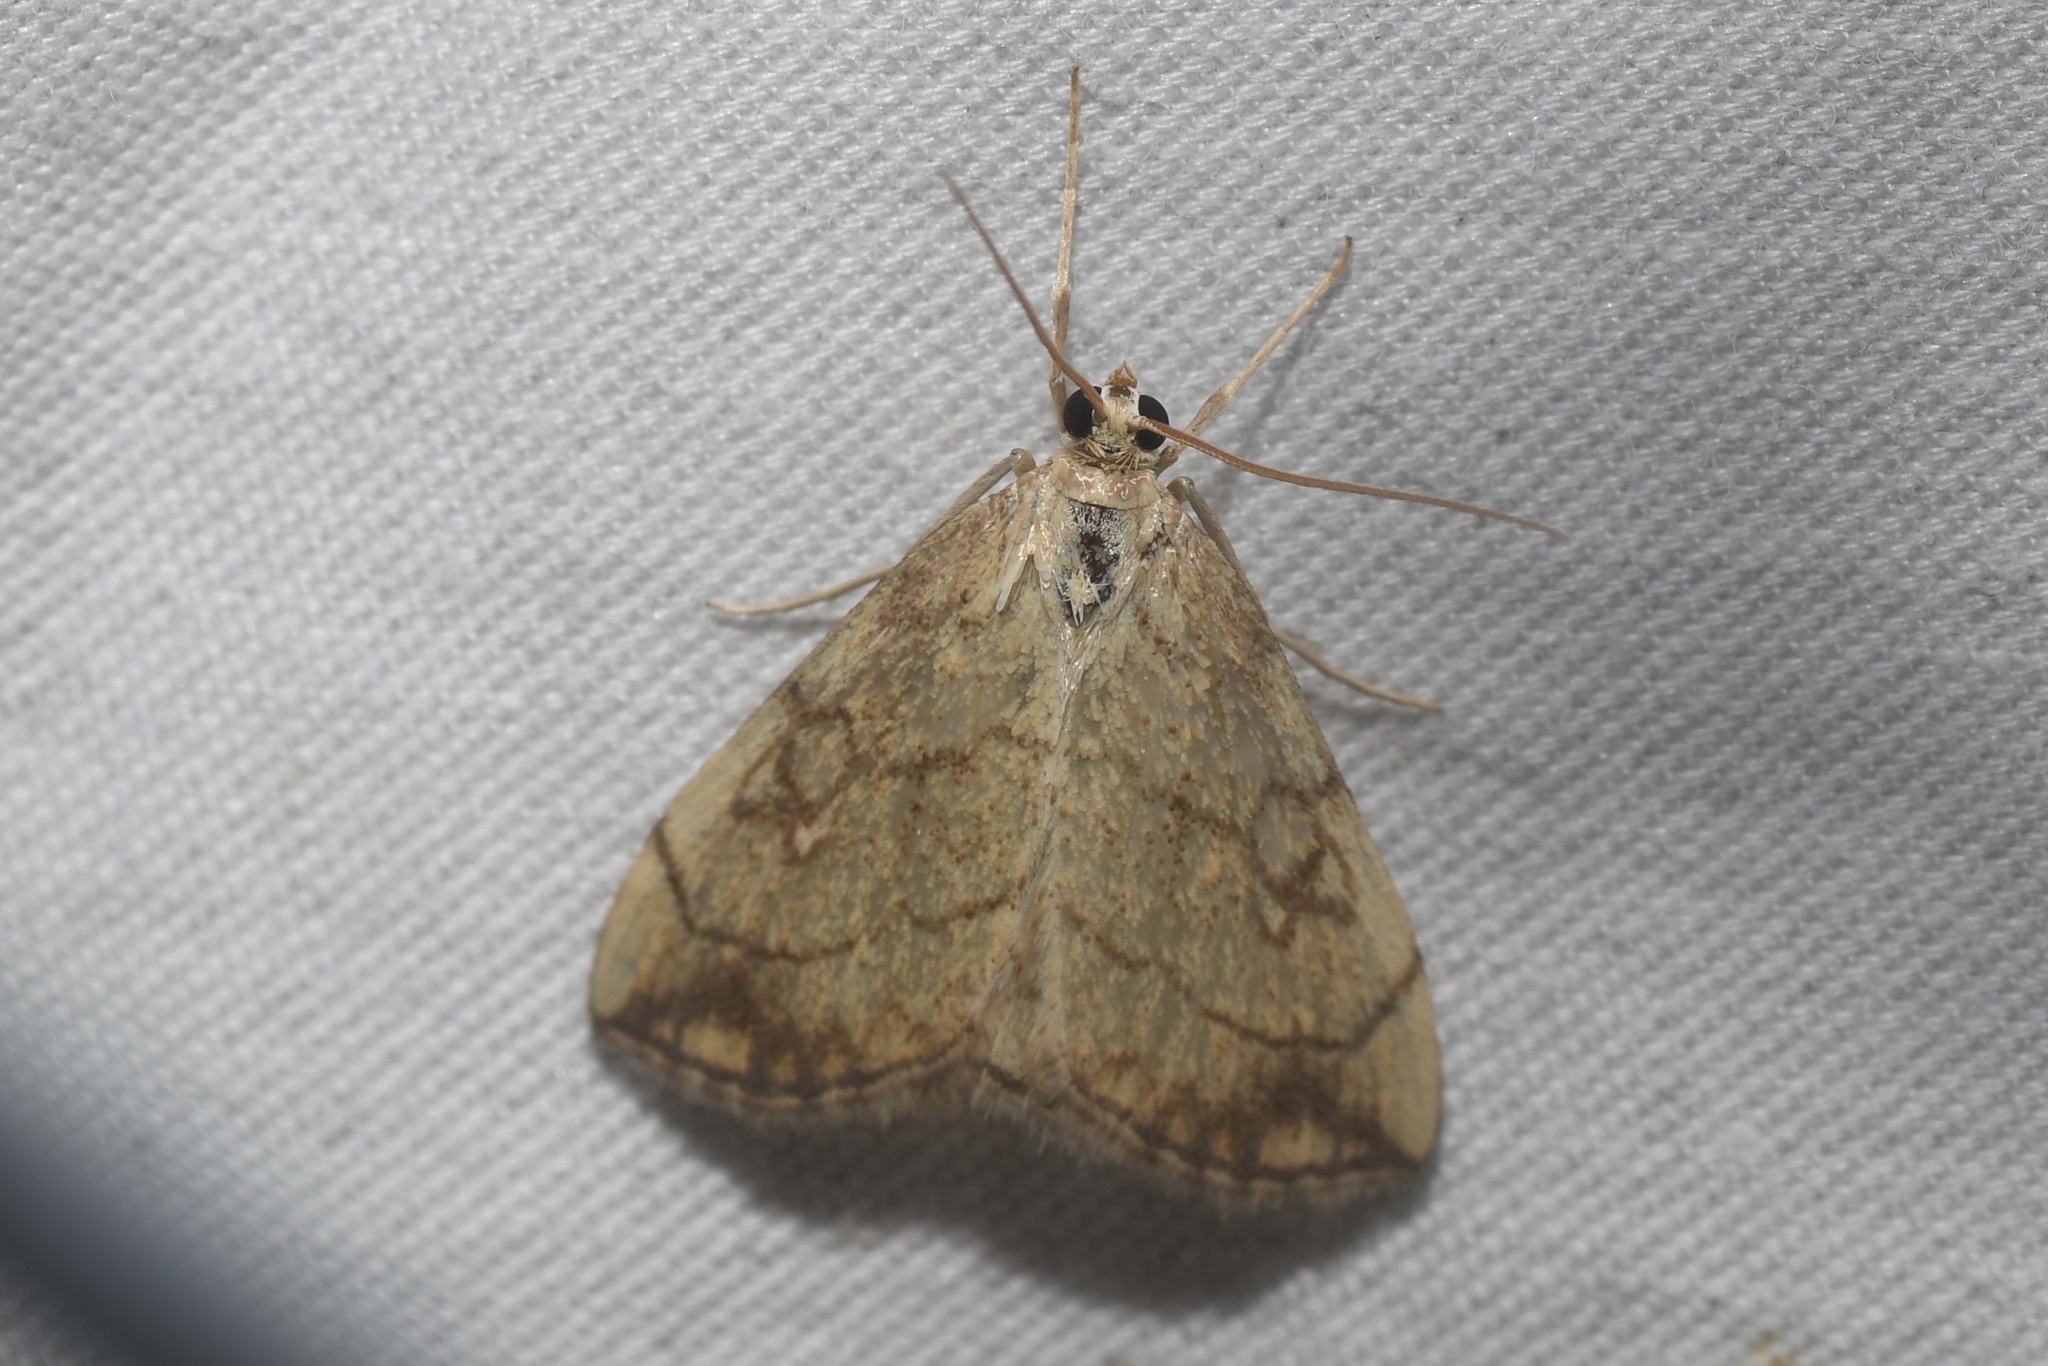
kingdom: Animalia
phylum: Arthropoda
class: Insecta
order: Lepidoptera
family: Crambidae
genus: Evergestis
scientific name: Evergestis pallidata
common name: Chequered pearl
